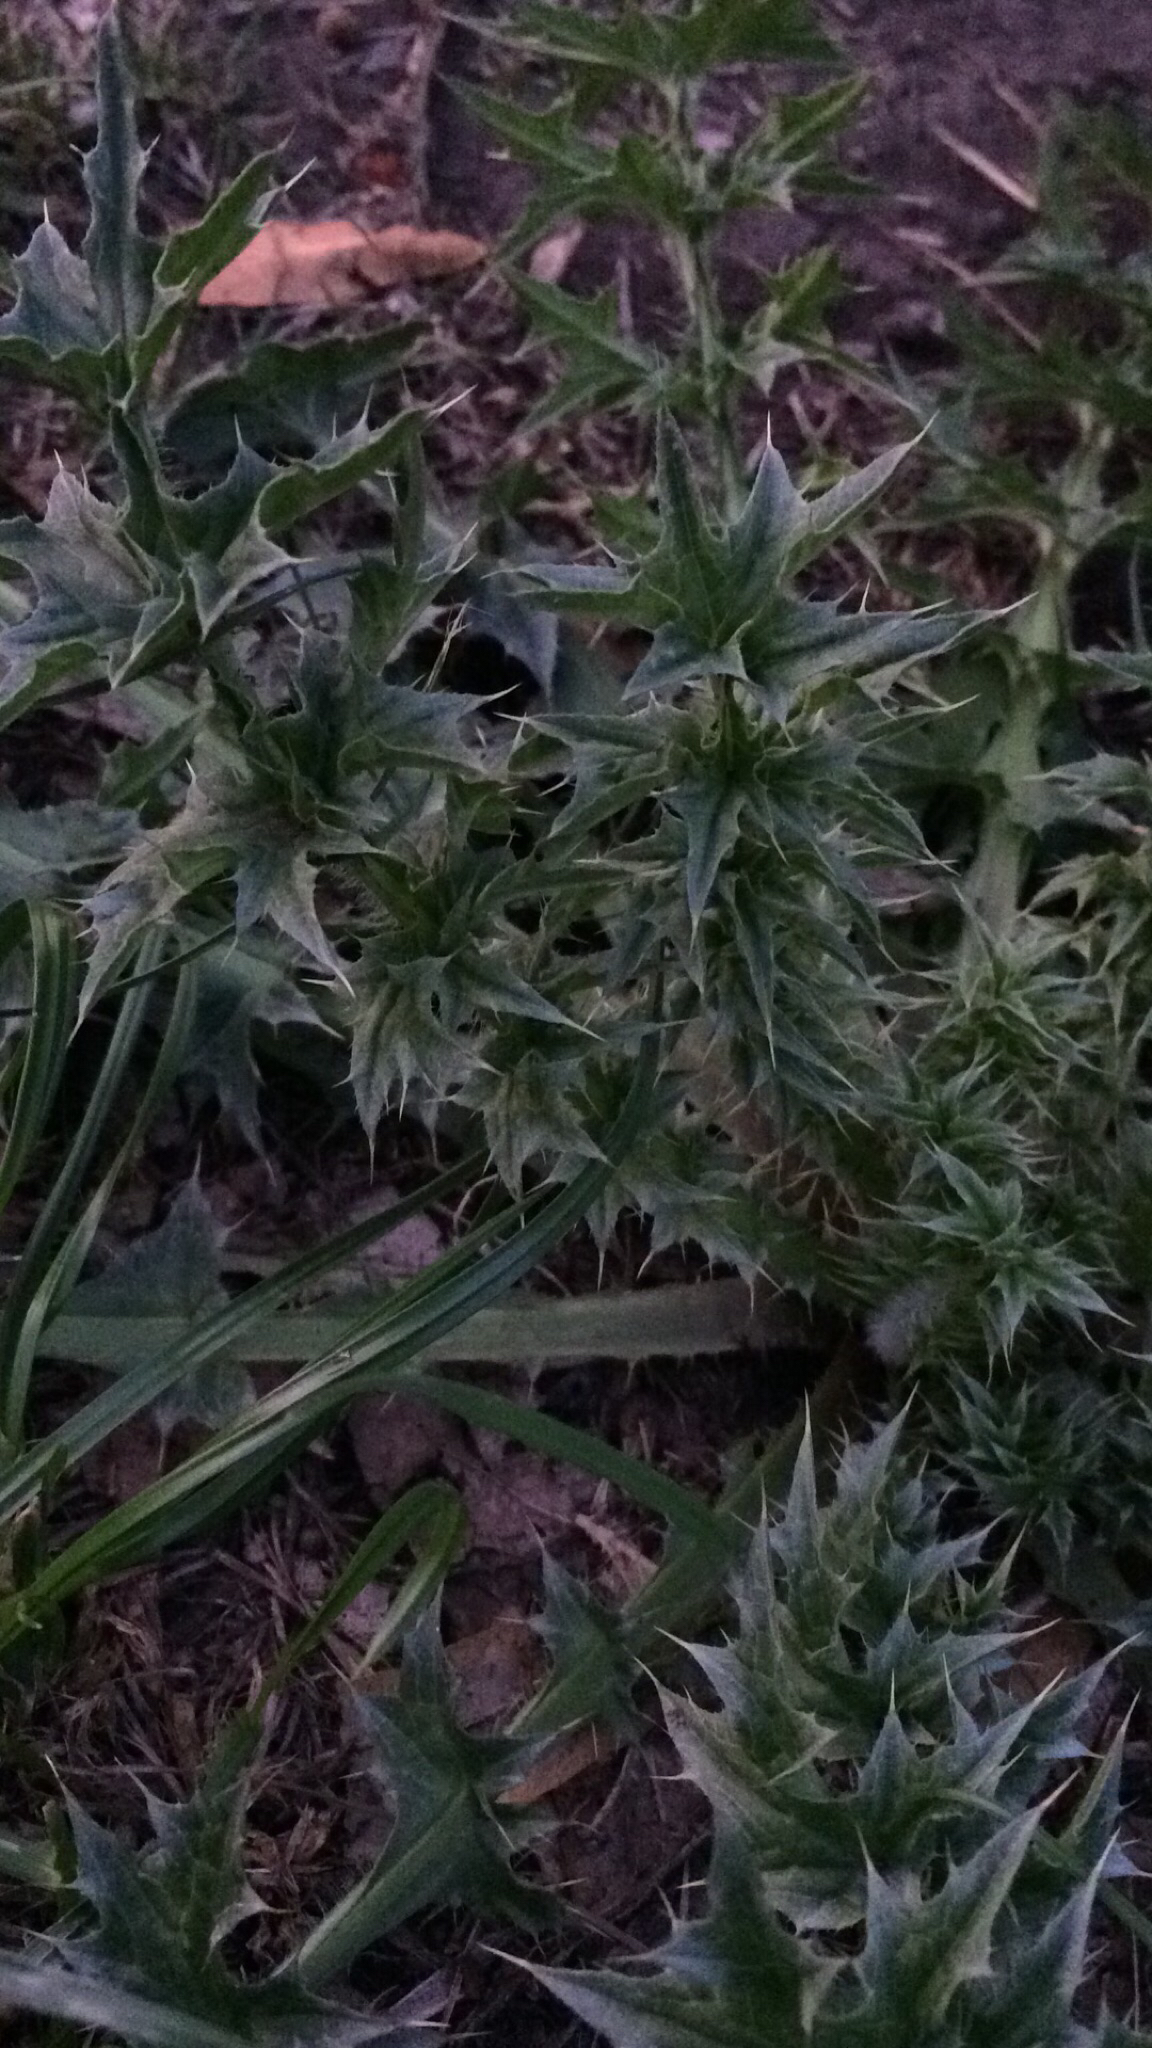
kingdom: Plantae
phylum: Tracheophyta
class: Magnoliopsida
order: Asterales
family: Asteraceae
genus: Carduus
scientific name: Carduus nutans
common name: Musk thistle
